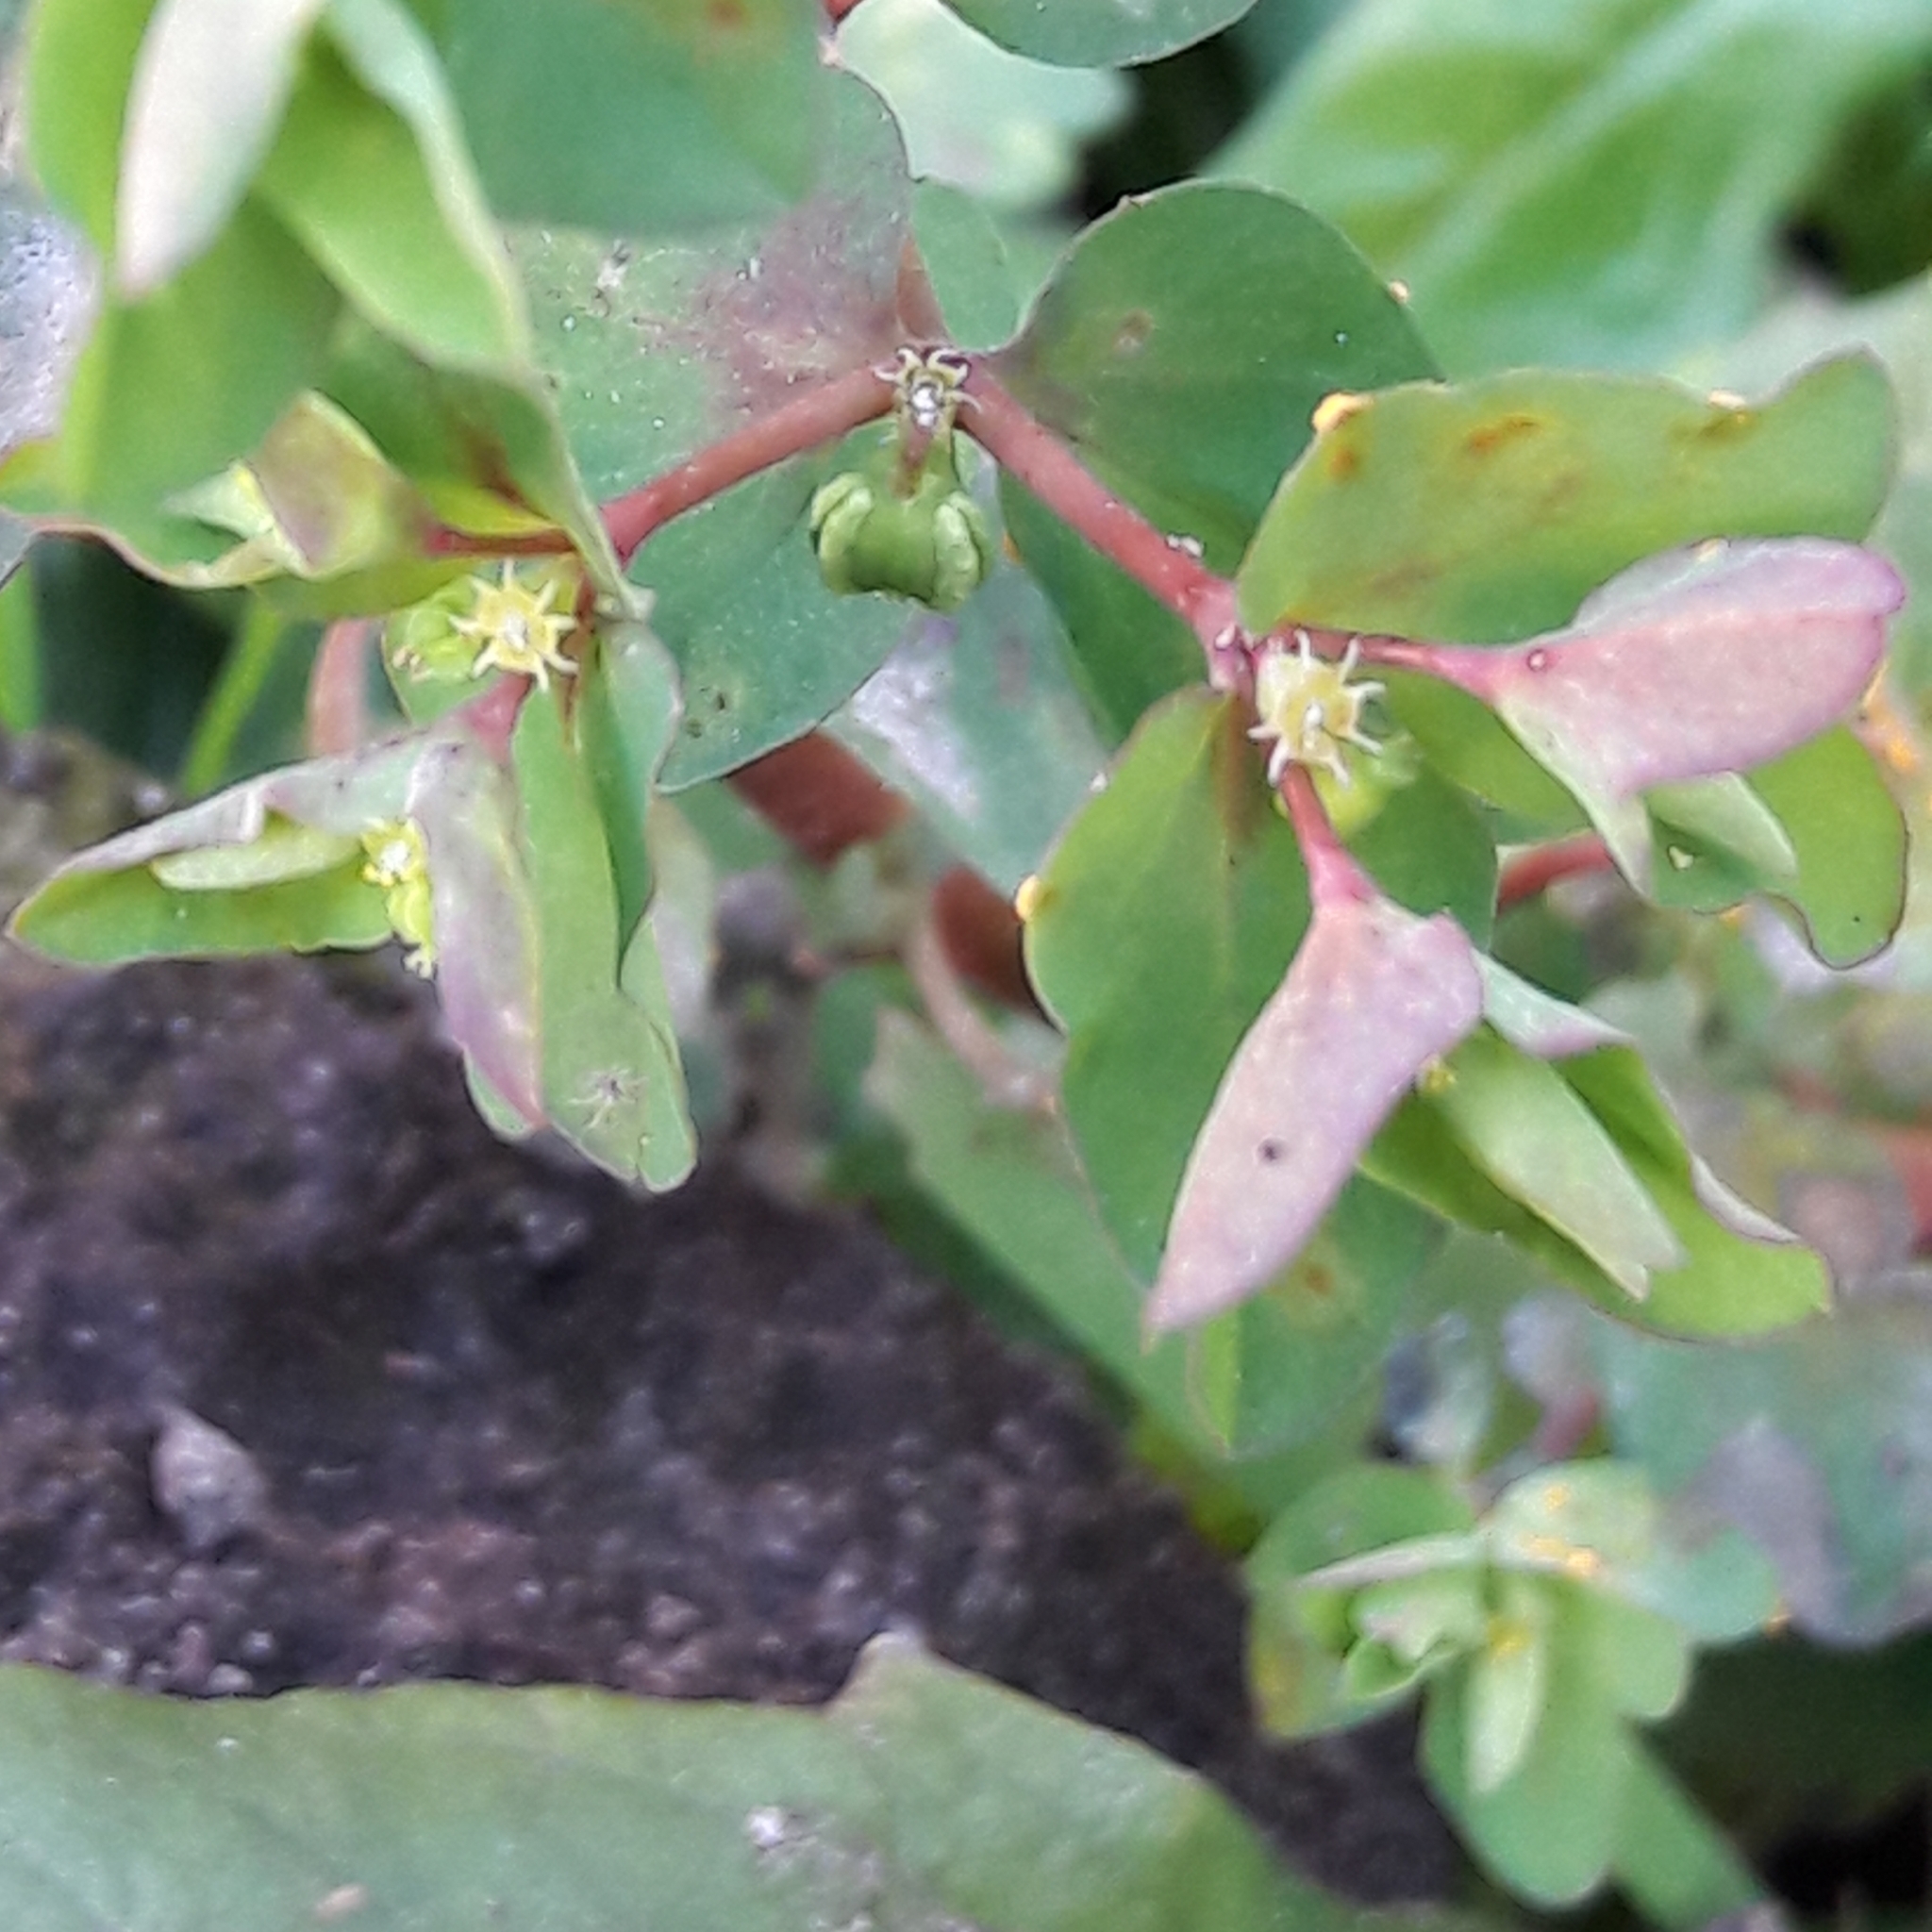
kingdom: Plantae
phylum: Tracheophyta
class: Magnoliopsida
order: Malpighiales
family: Euphorbiaceae
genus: Euphorbia
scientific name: Euphorbia peplus
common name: Petty spurge
